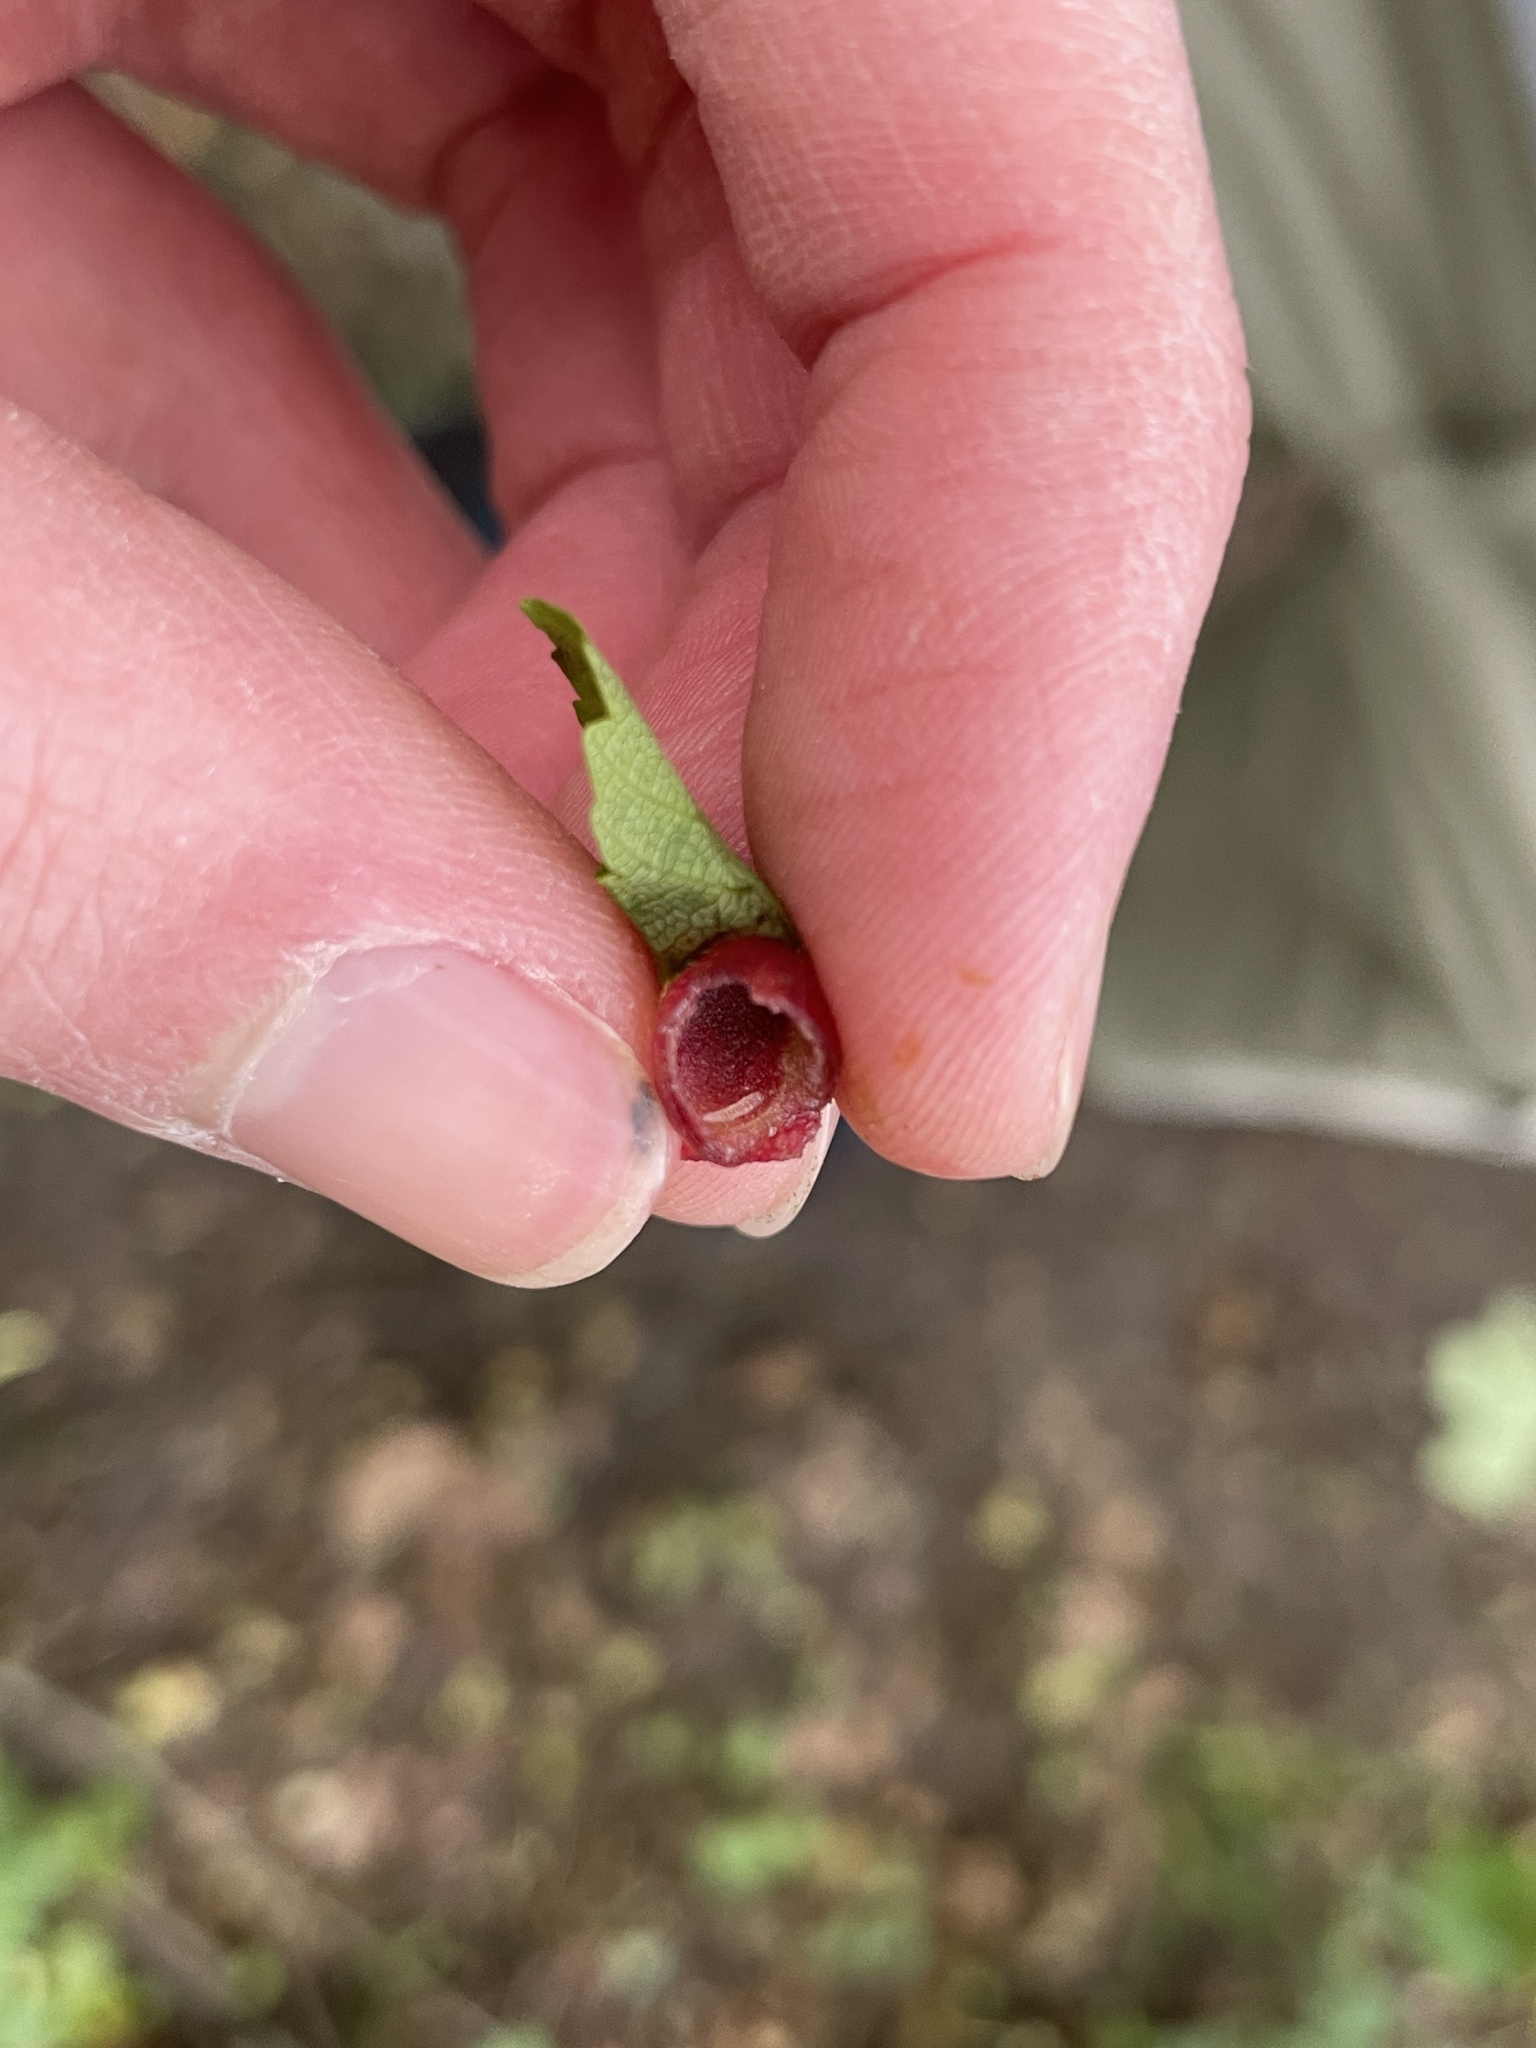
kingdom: Animalia
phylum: Arthropoda
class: Insecta
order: Hymenoptera
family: Cynipidae
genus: Pediaspis
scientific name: Pediaspis aceris
